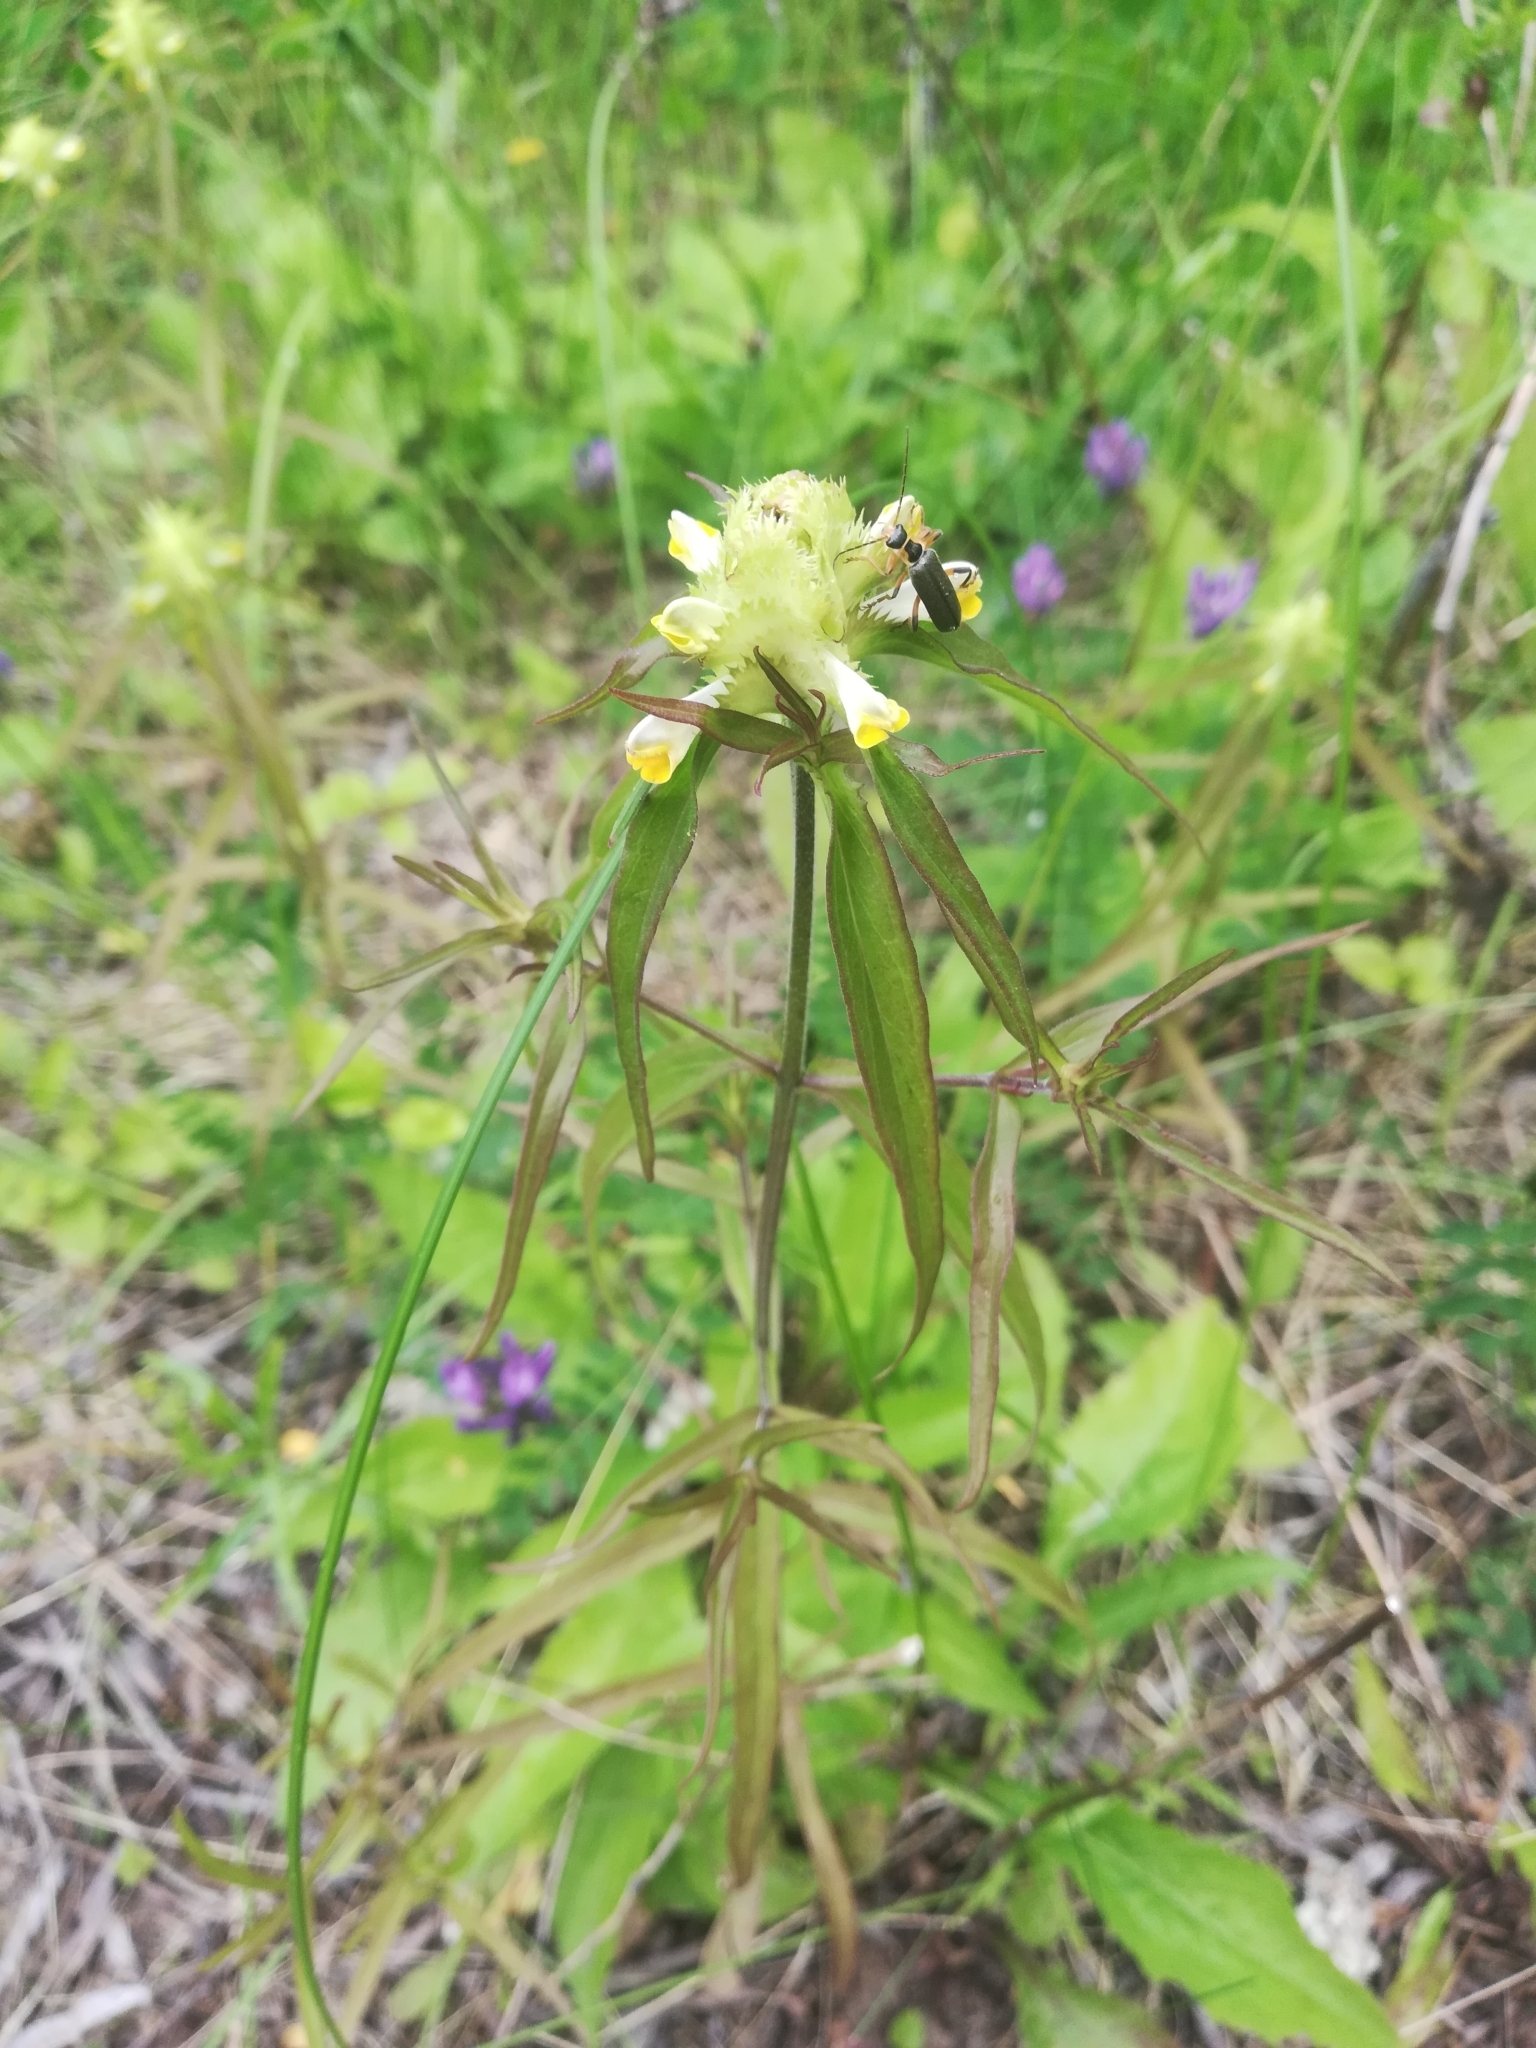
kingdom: Plantae
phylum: Tracheophyta
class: Magnoliopsida
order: Lamiales
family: Orobanchaceae
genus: Melampyrum
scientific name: Melampyrum cristatum
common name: Crested cow-wheat
